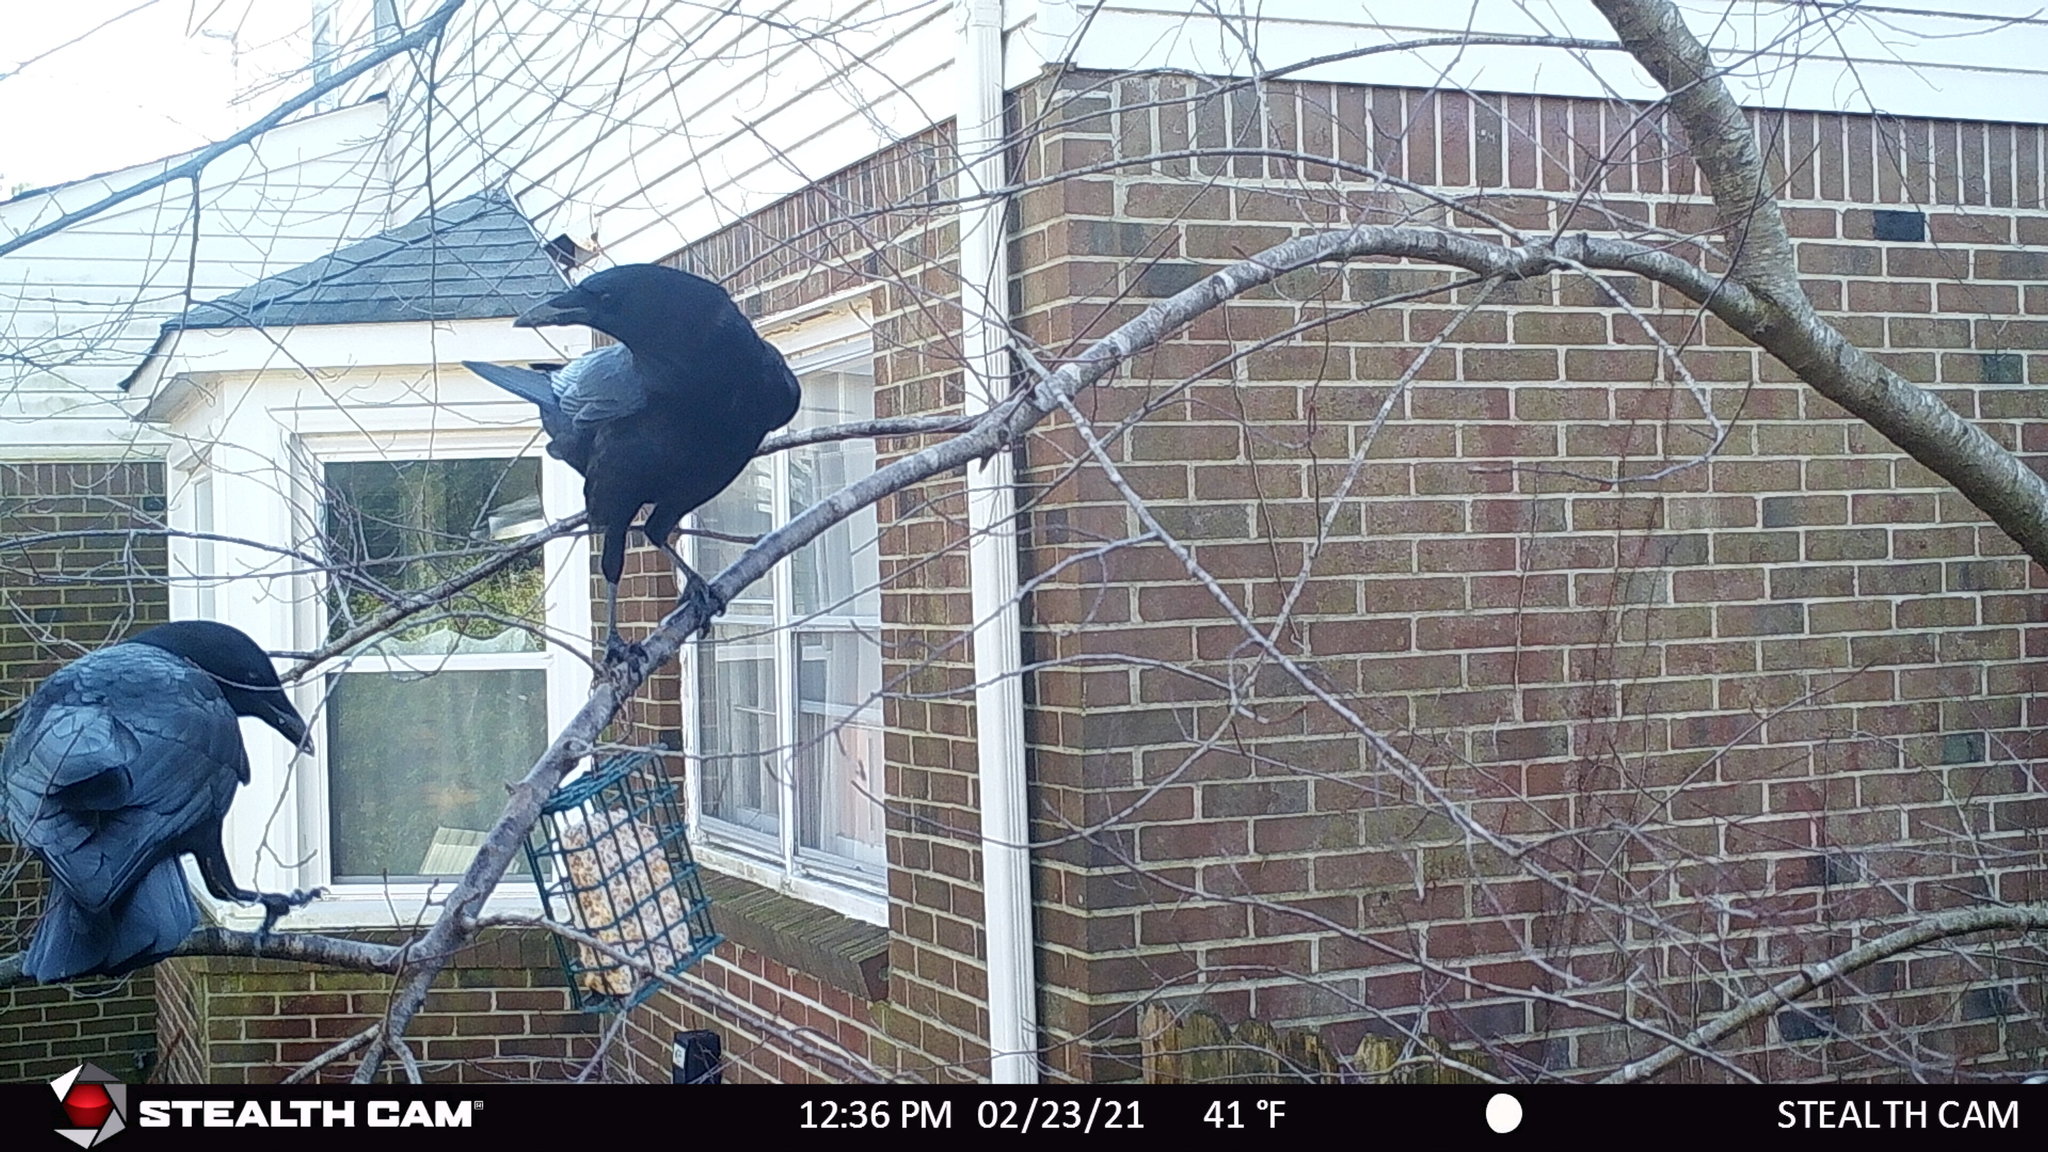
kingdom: Animalia
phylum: Chordata
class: Aves
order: Passeriformes
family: Corvidae
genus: Corvus
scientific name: Corvus brachyrhynchos
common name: American crow
